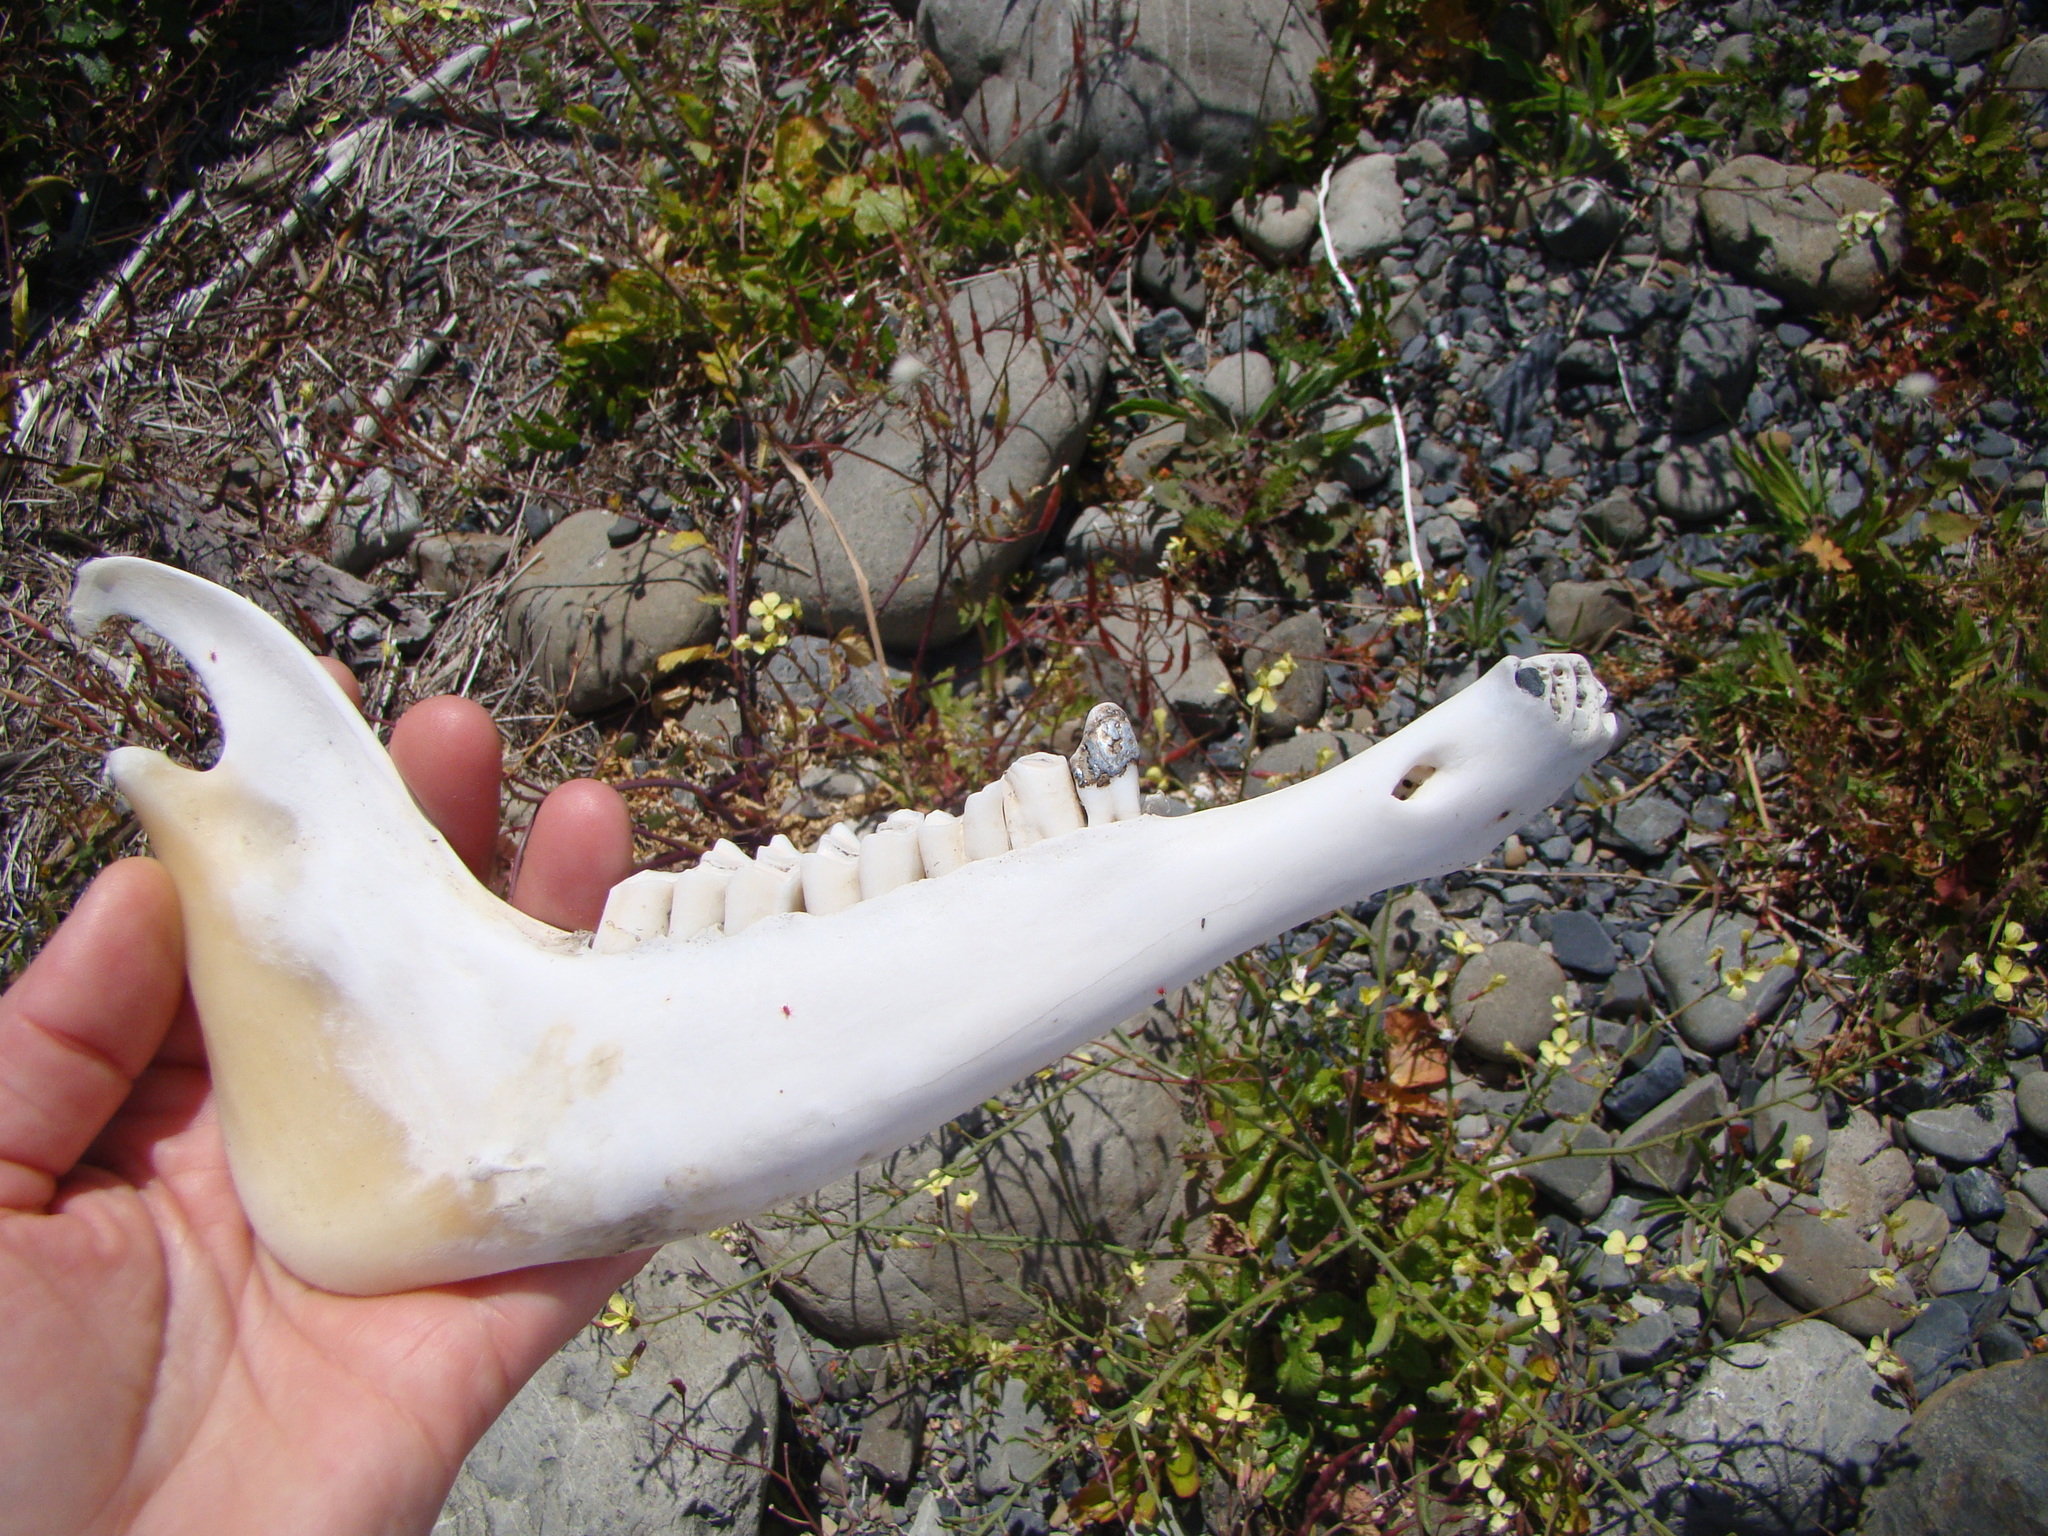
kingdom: Animalia
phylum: Chordata
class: Mammalia
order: Artiodactyla
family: Bovidae
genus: Ovis
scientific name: Ovis aries
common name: Domestic sheep
